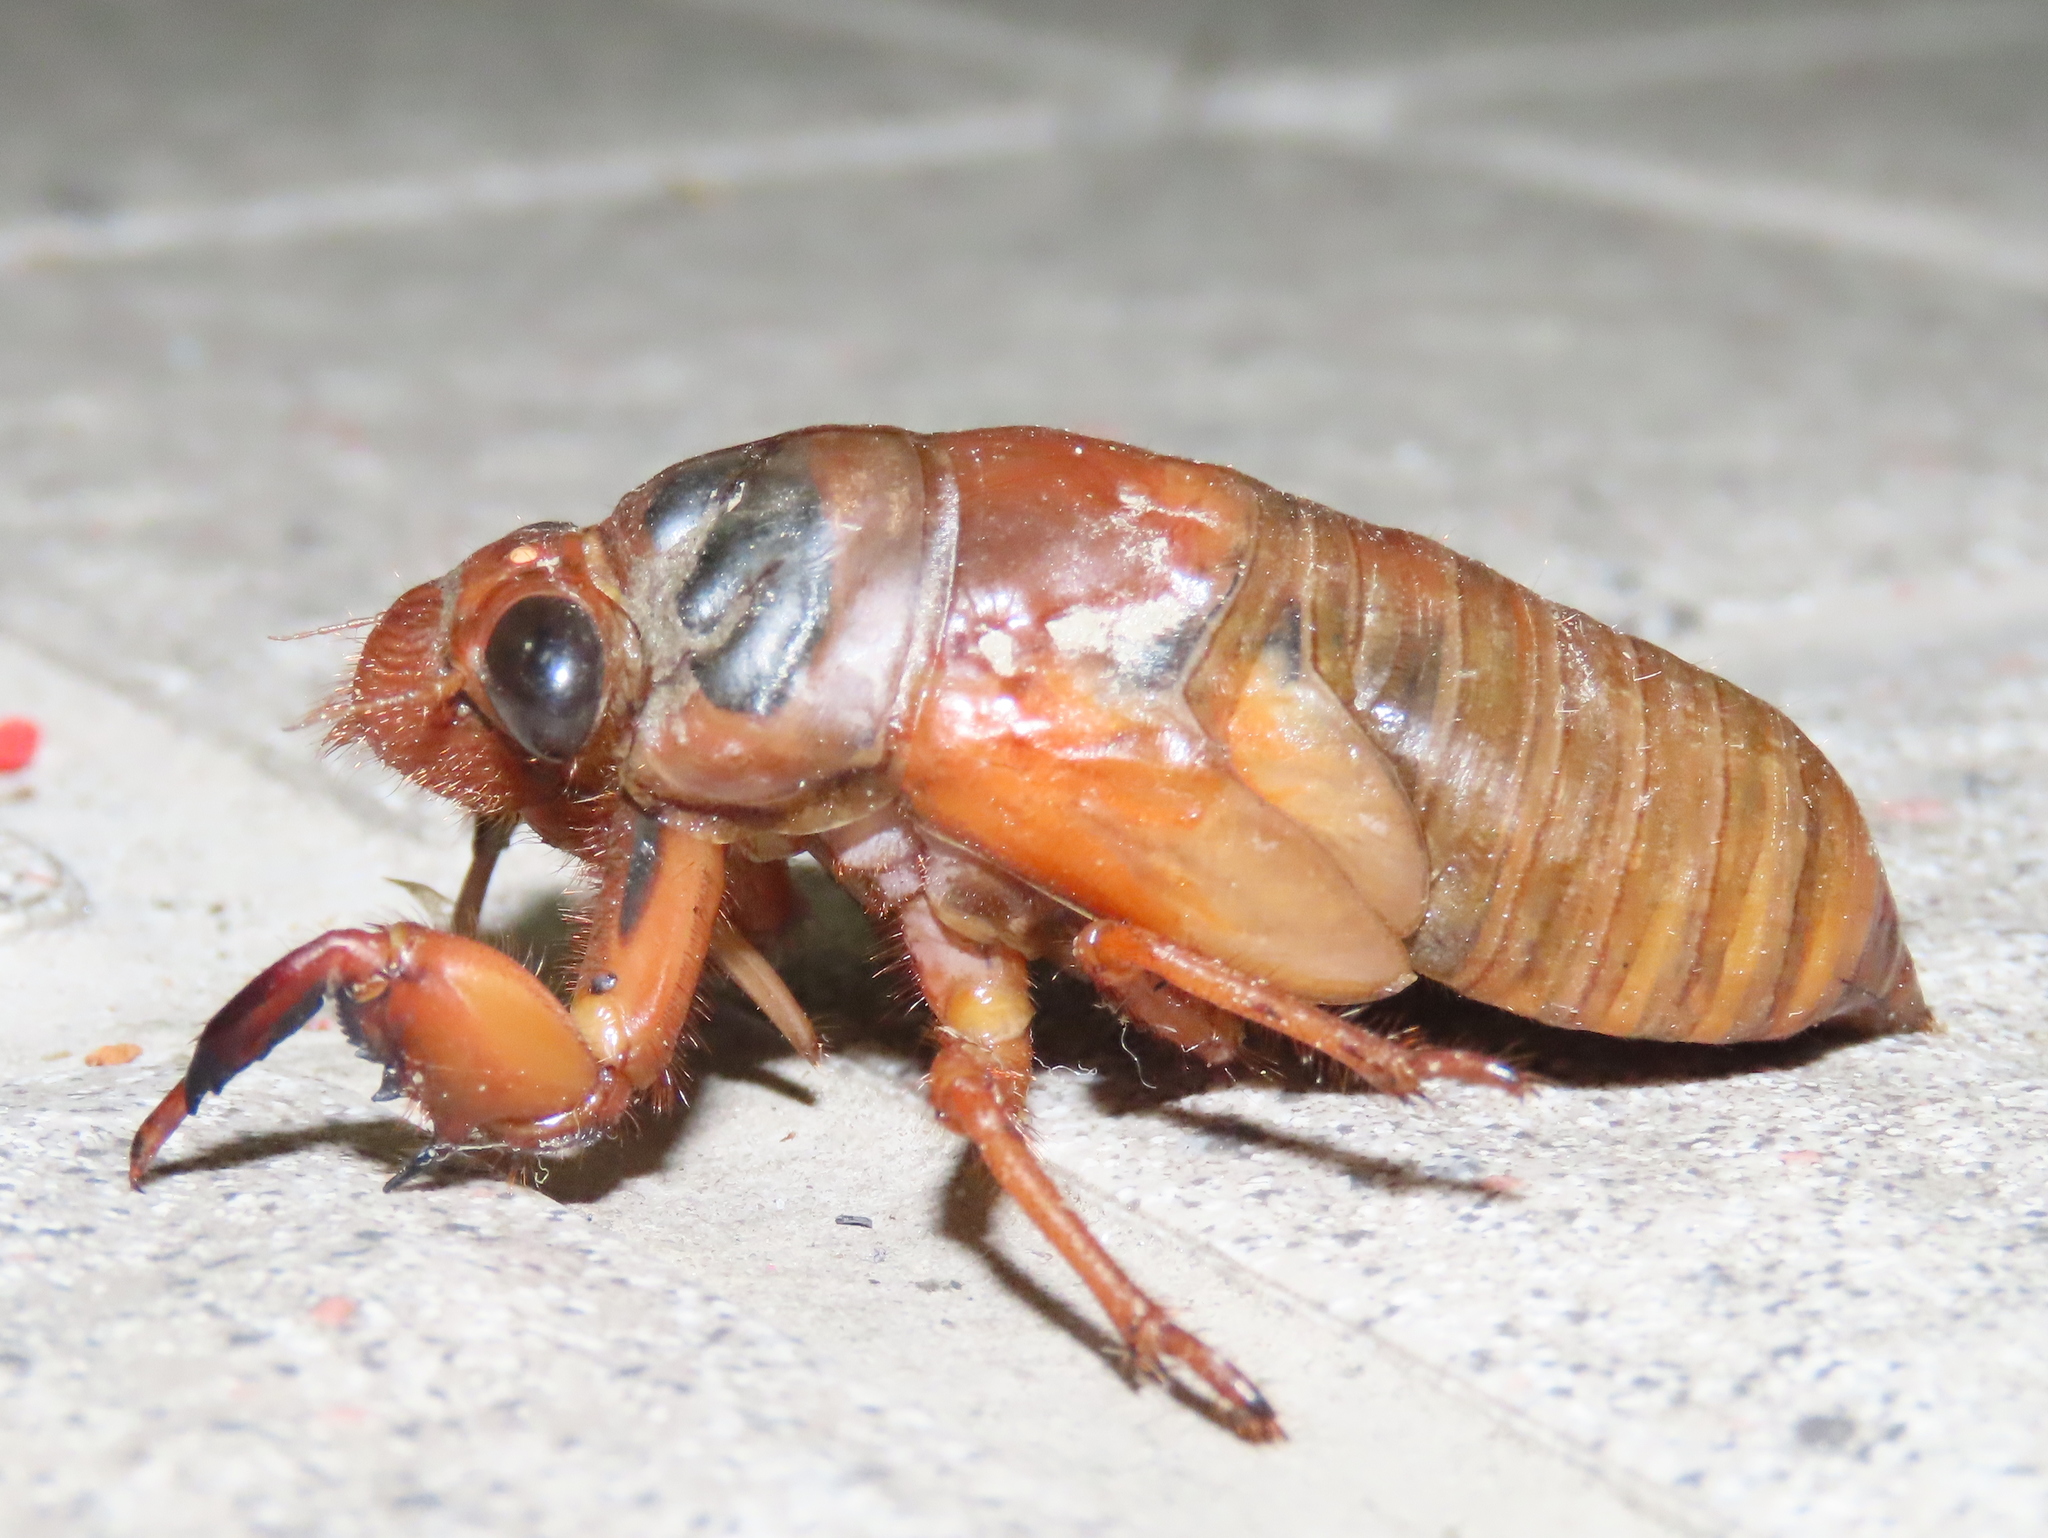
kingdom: Animalia
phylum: Arthropoda
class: Insecta
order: Hemiptera
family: Cicadidae
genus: Cryptotympana
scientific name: Cryptotympana atrata
